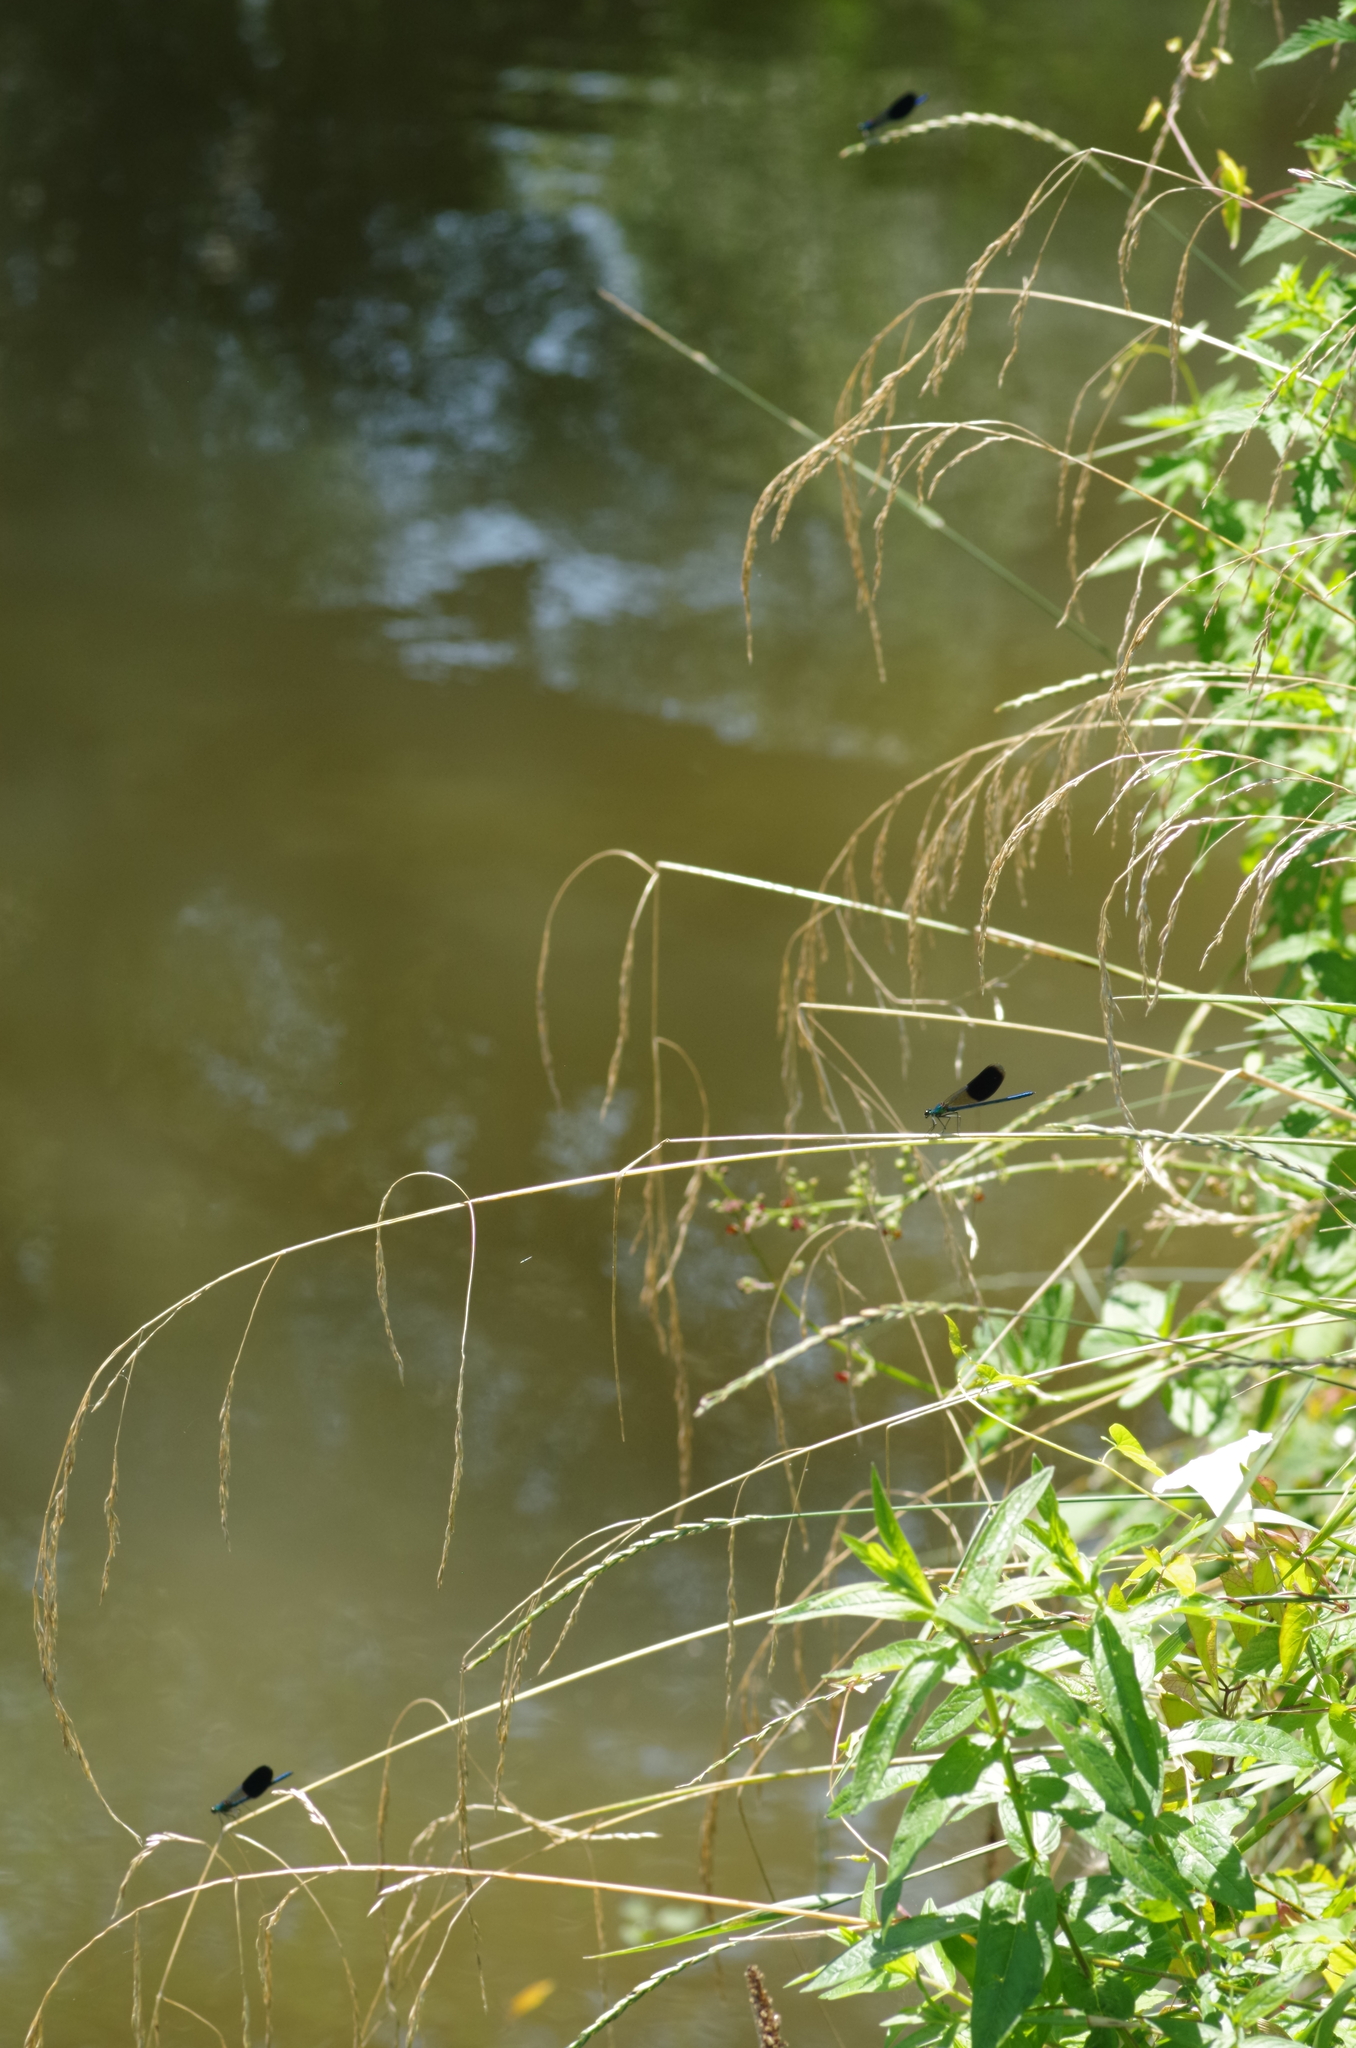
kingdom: Animalia
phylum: Arthropoda
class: Insecta
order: Odonata
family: Calopterygidae
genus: Calopteryx
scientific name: Calopteryx splendens
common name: Banded demoiselle
